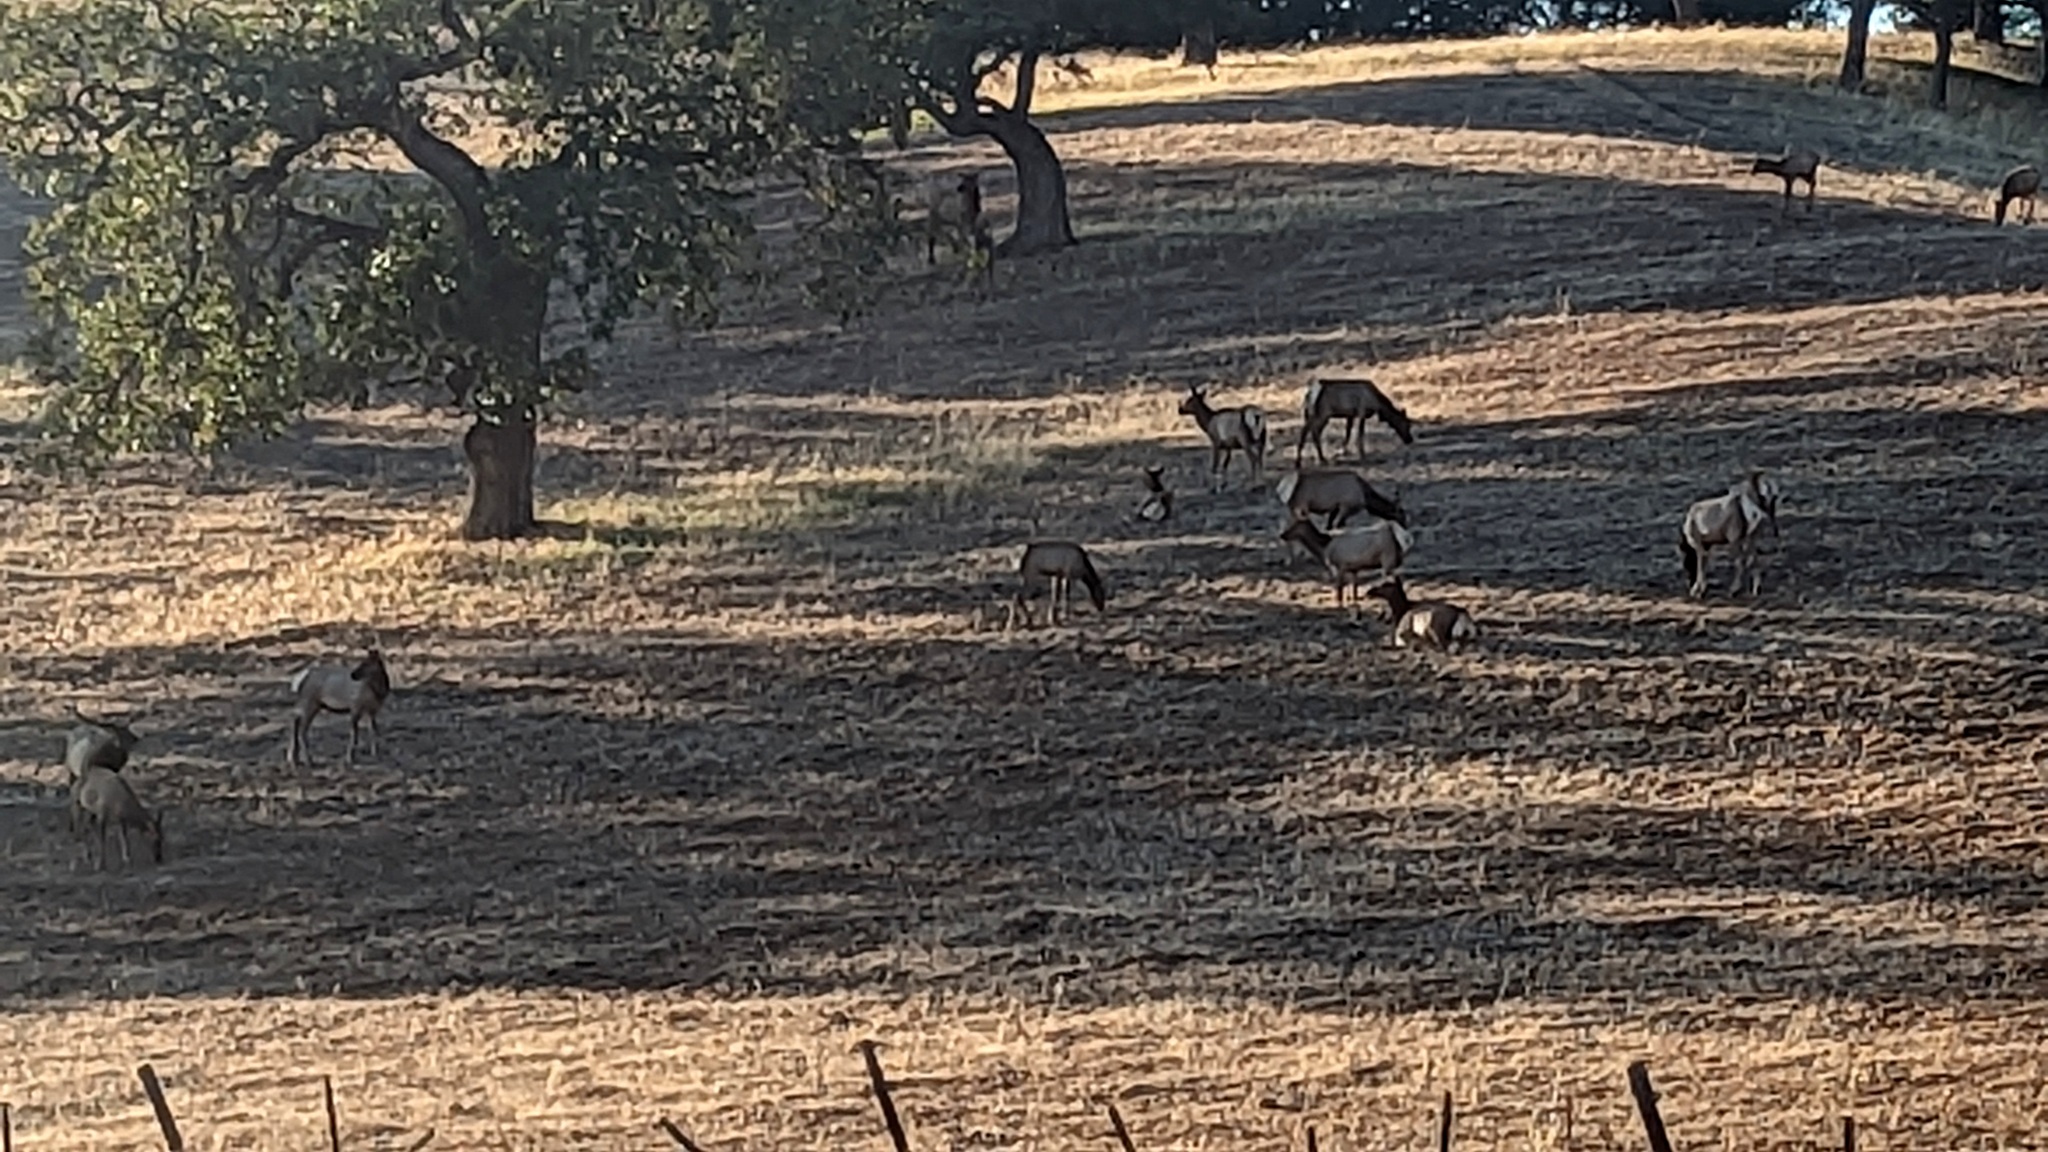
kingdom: Animalia
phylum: Chordata
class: Mammalia
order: Artiodactyla
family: Cervidae
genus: Cervus
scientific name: Cervus elaphus
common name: Red deer
